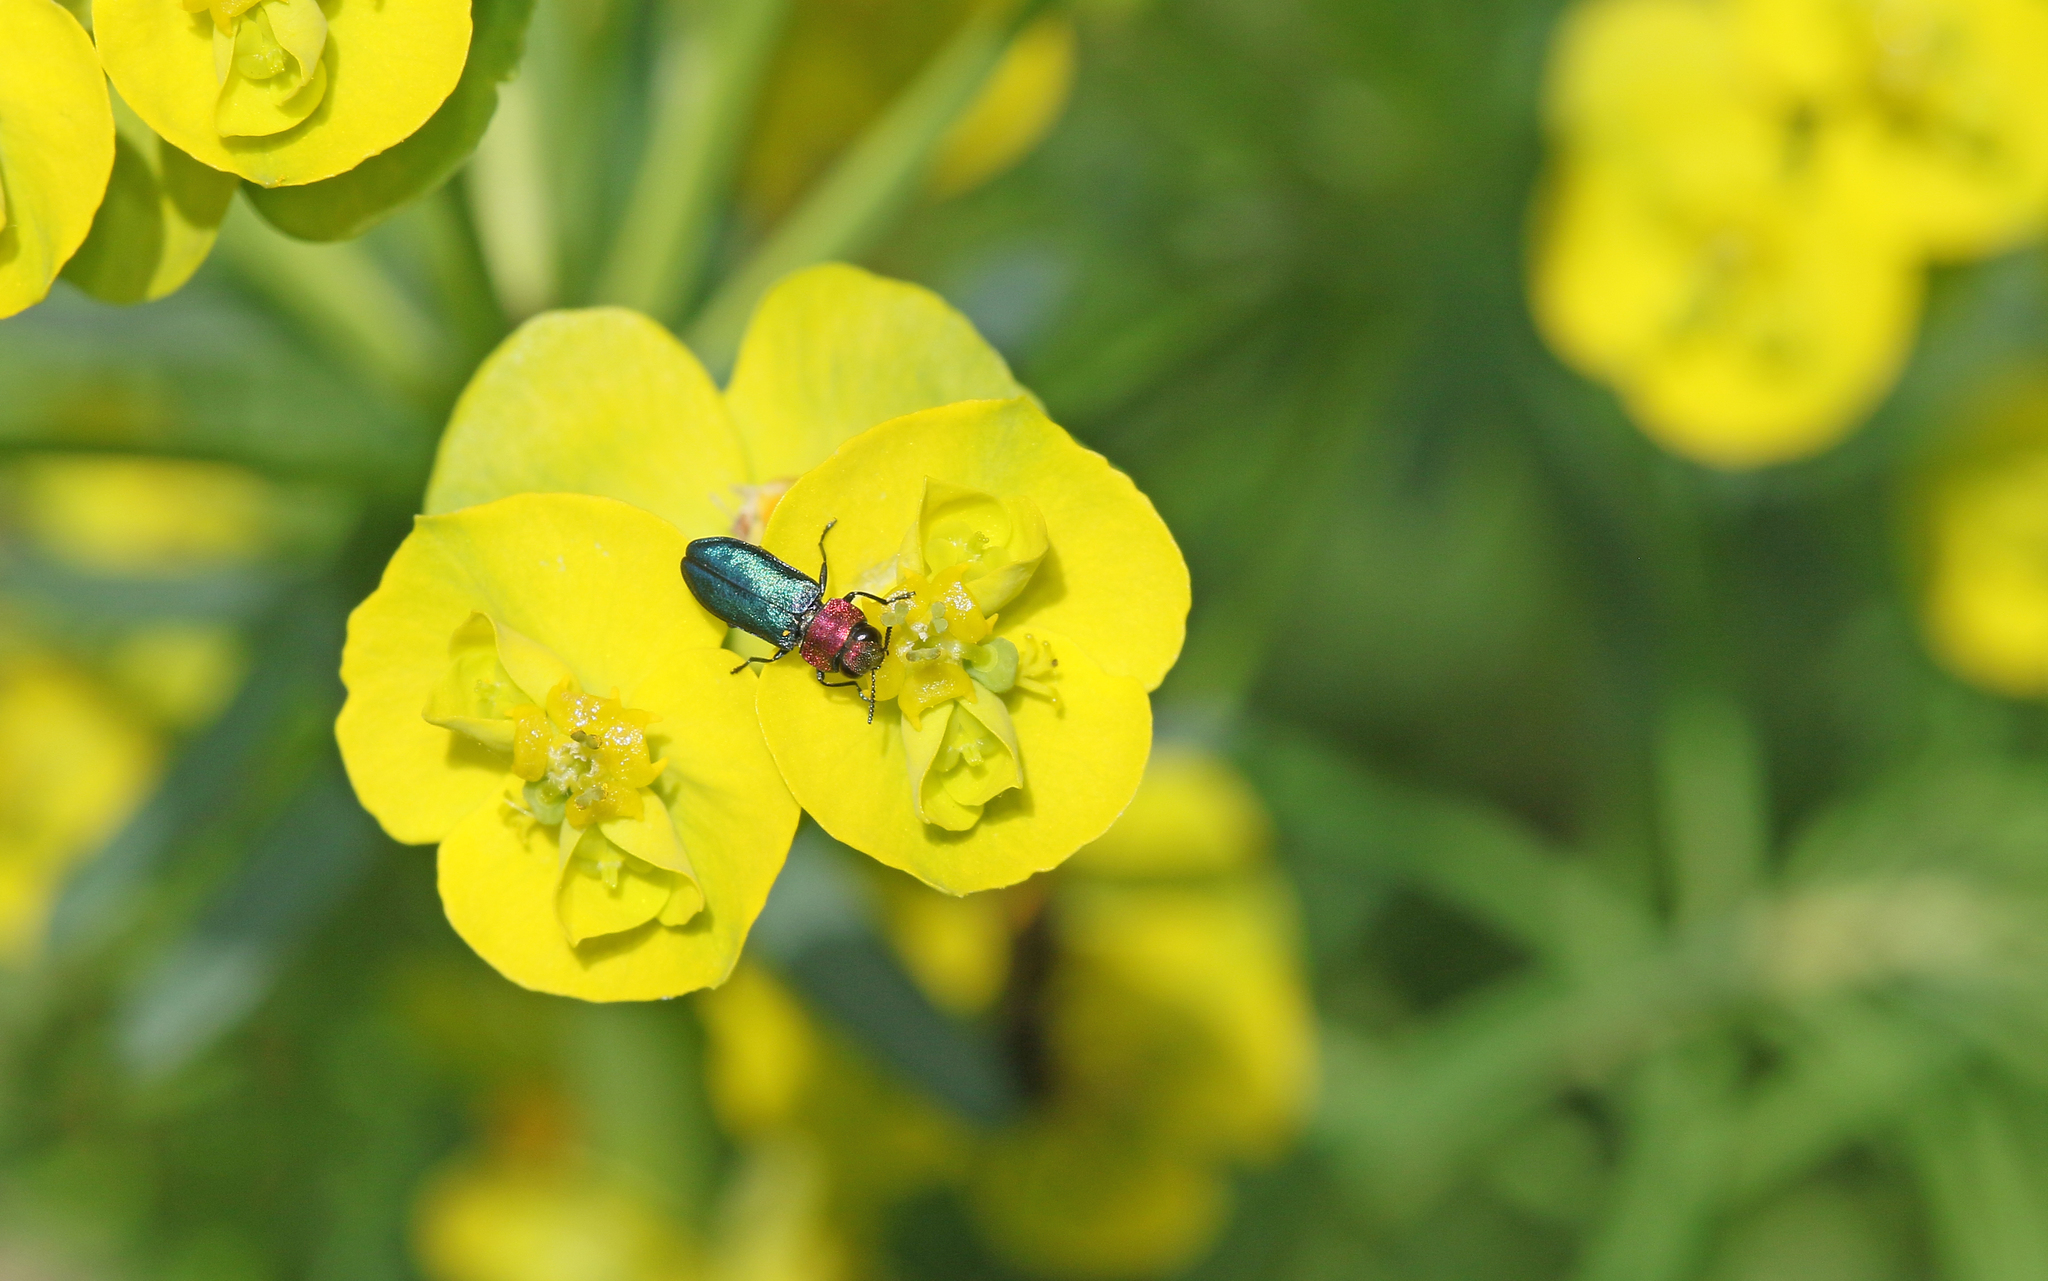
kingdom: Animalia
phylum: Arthropoda
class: Insecta
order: Coleoptera
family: Buprestidae
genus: Anthaxia
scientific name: Anthaxia nitidula
